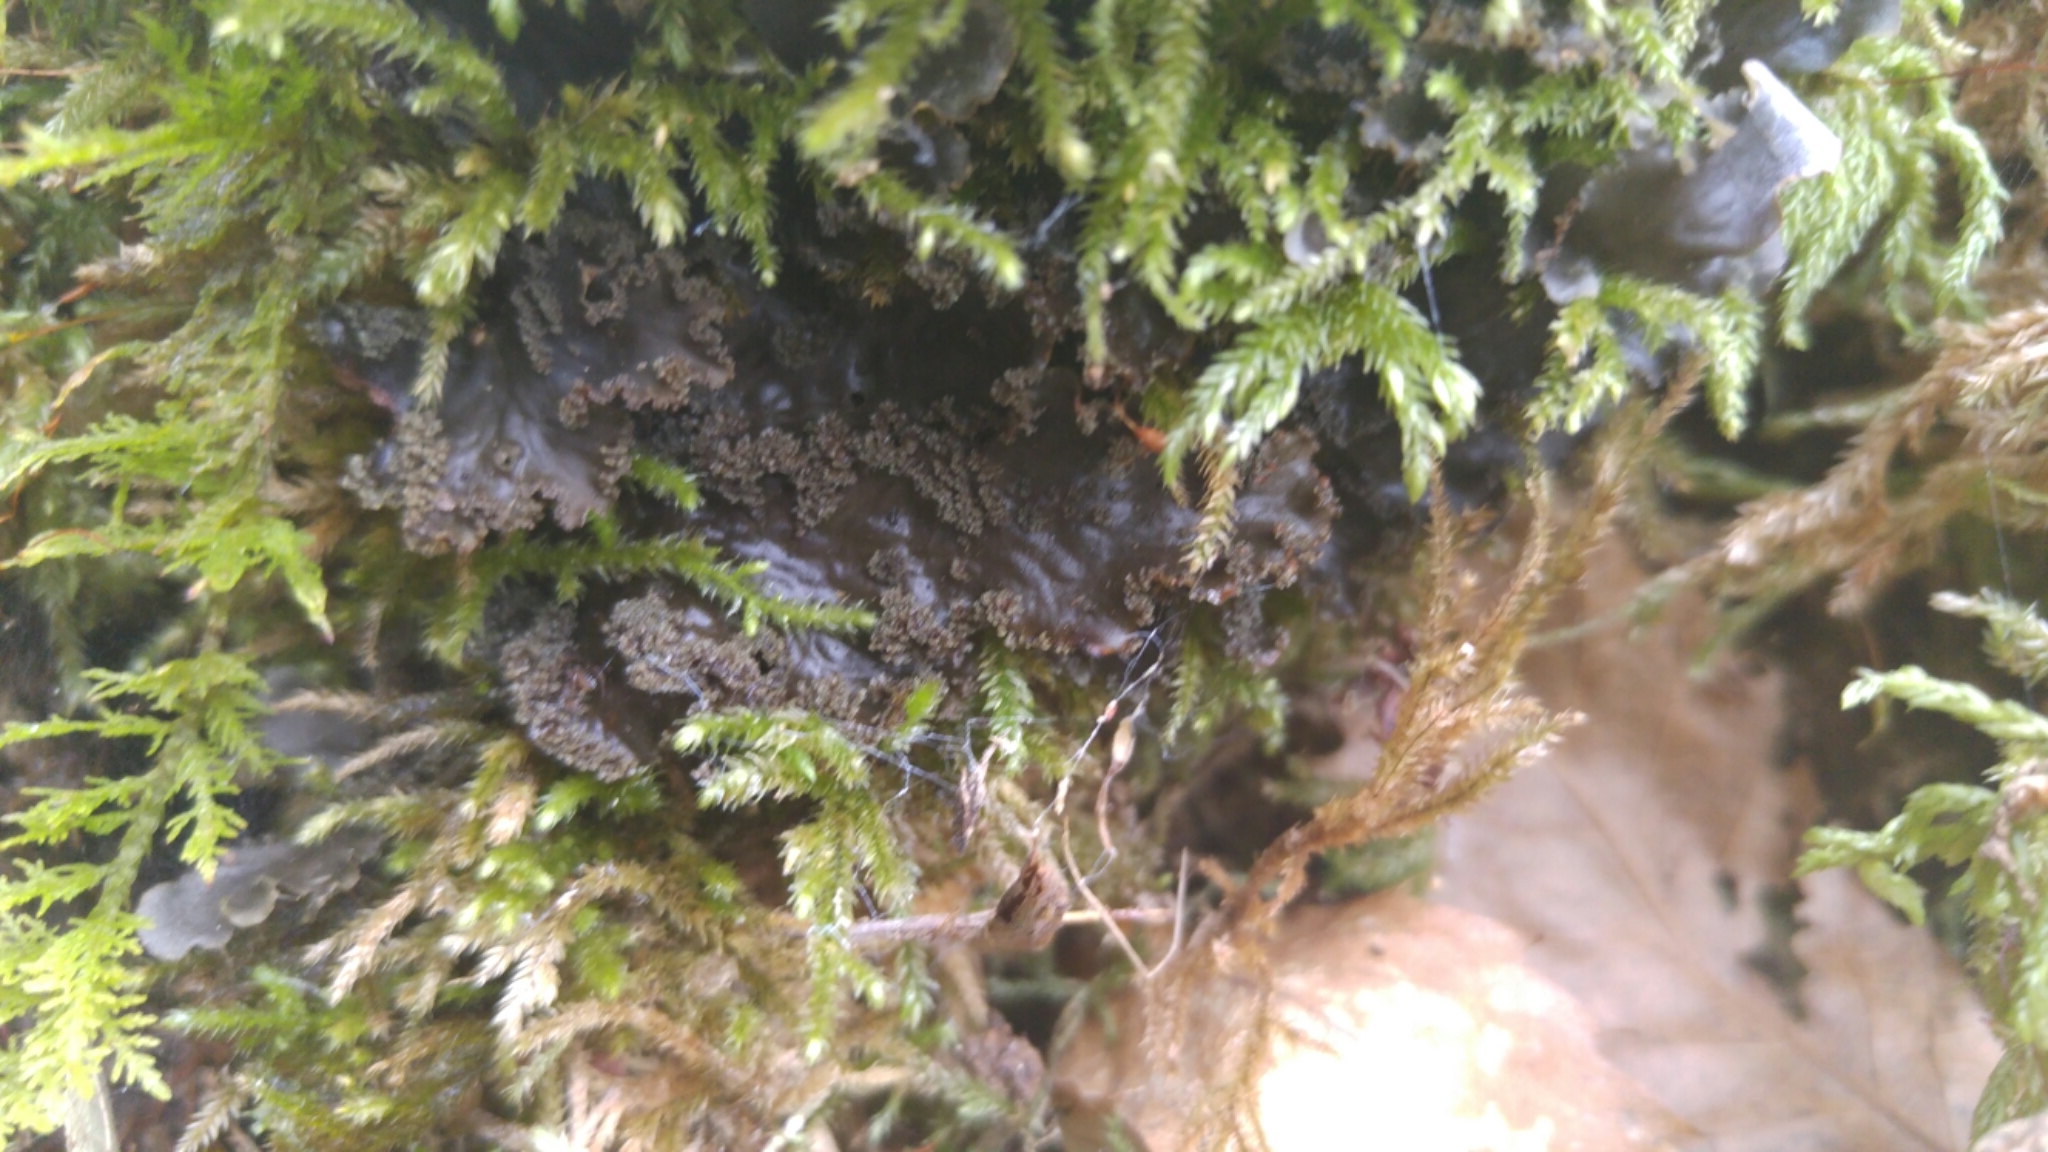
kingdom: Fungi
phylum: Ascomycota
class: Lecanoromycetes
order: Peltigerales
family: Peltigeraceae
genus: Peltigera
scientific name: Peltigera praetextata
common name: Scaly dog-lichen
